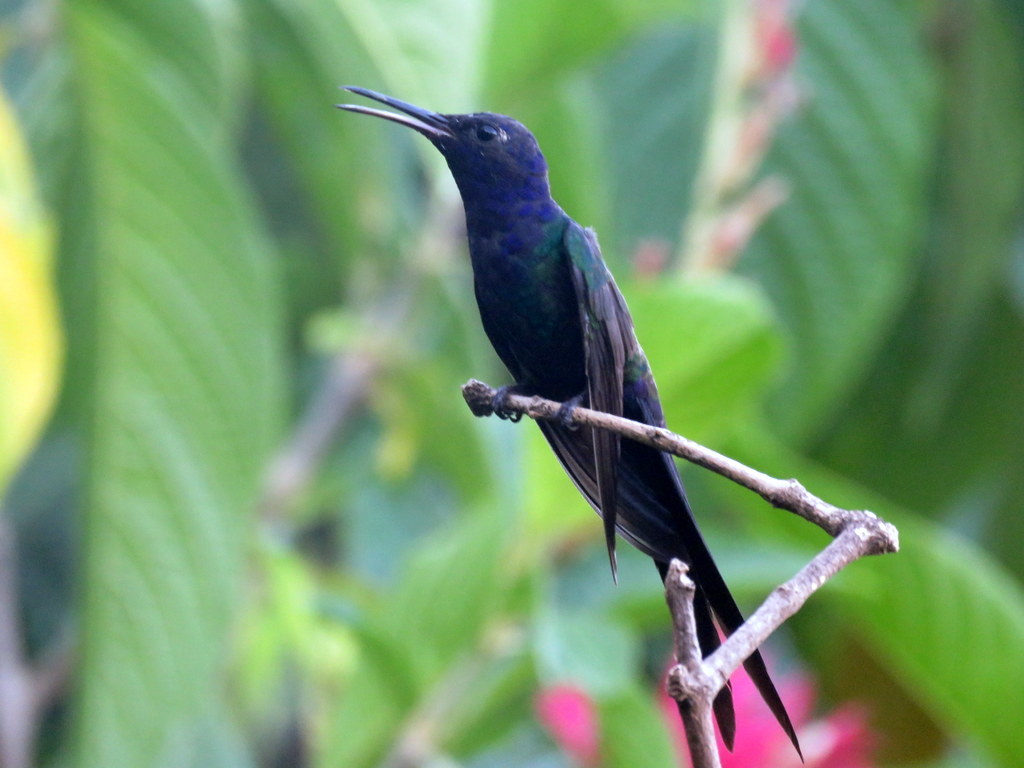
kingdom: Animalia
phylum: Chordata
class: Aves
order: Apodiformes
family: Trochilidae
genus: Eupetomena
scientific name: Eupetomena macroura
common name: Swallow-tailed hummingbird
